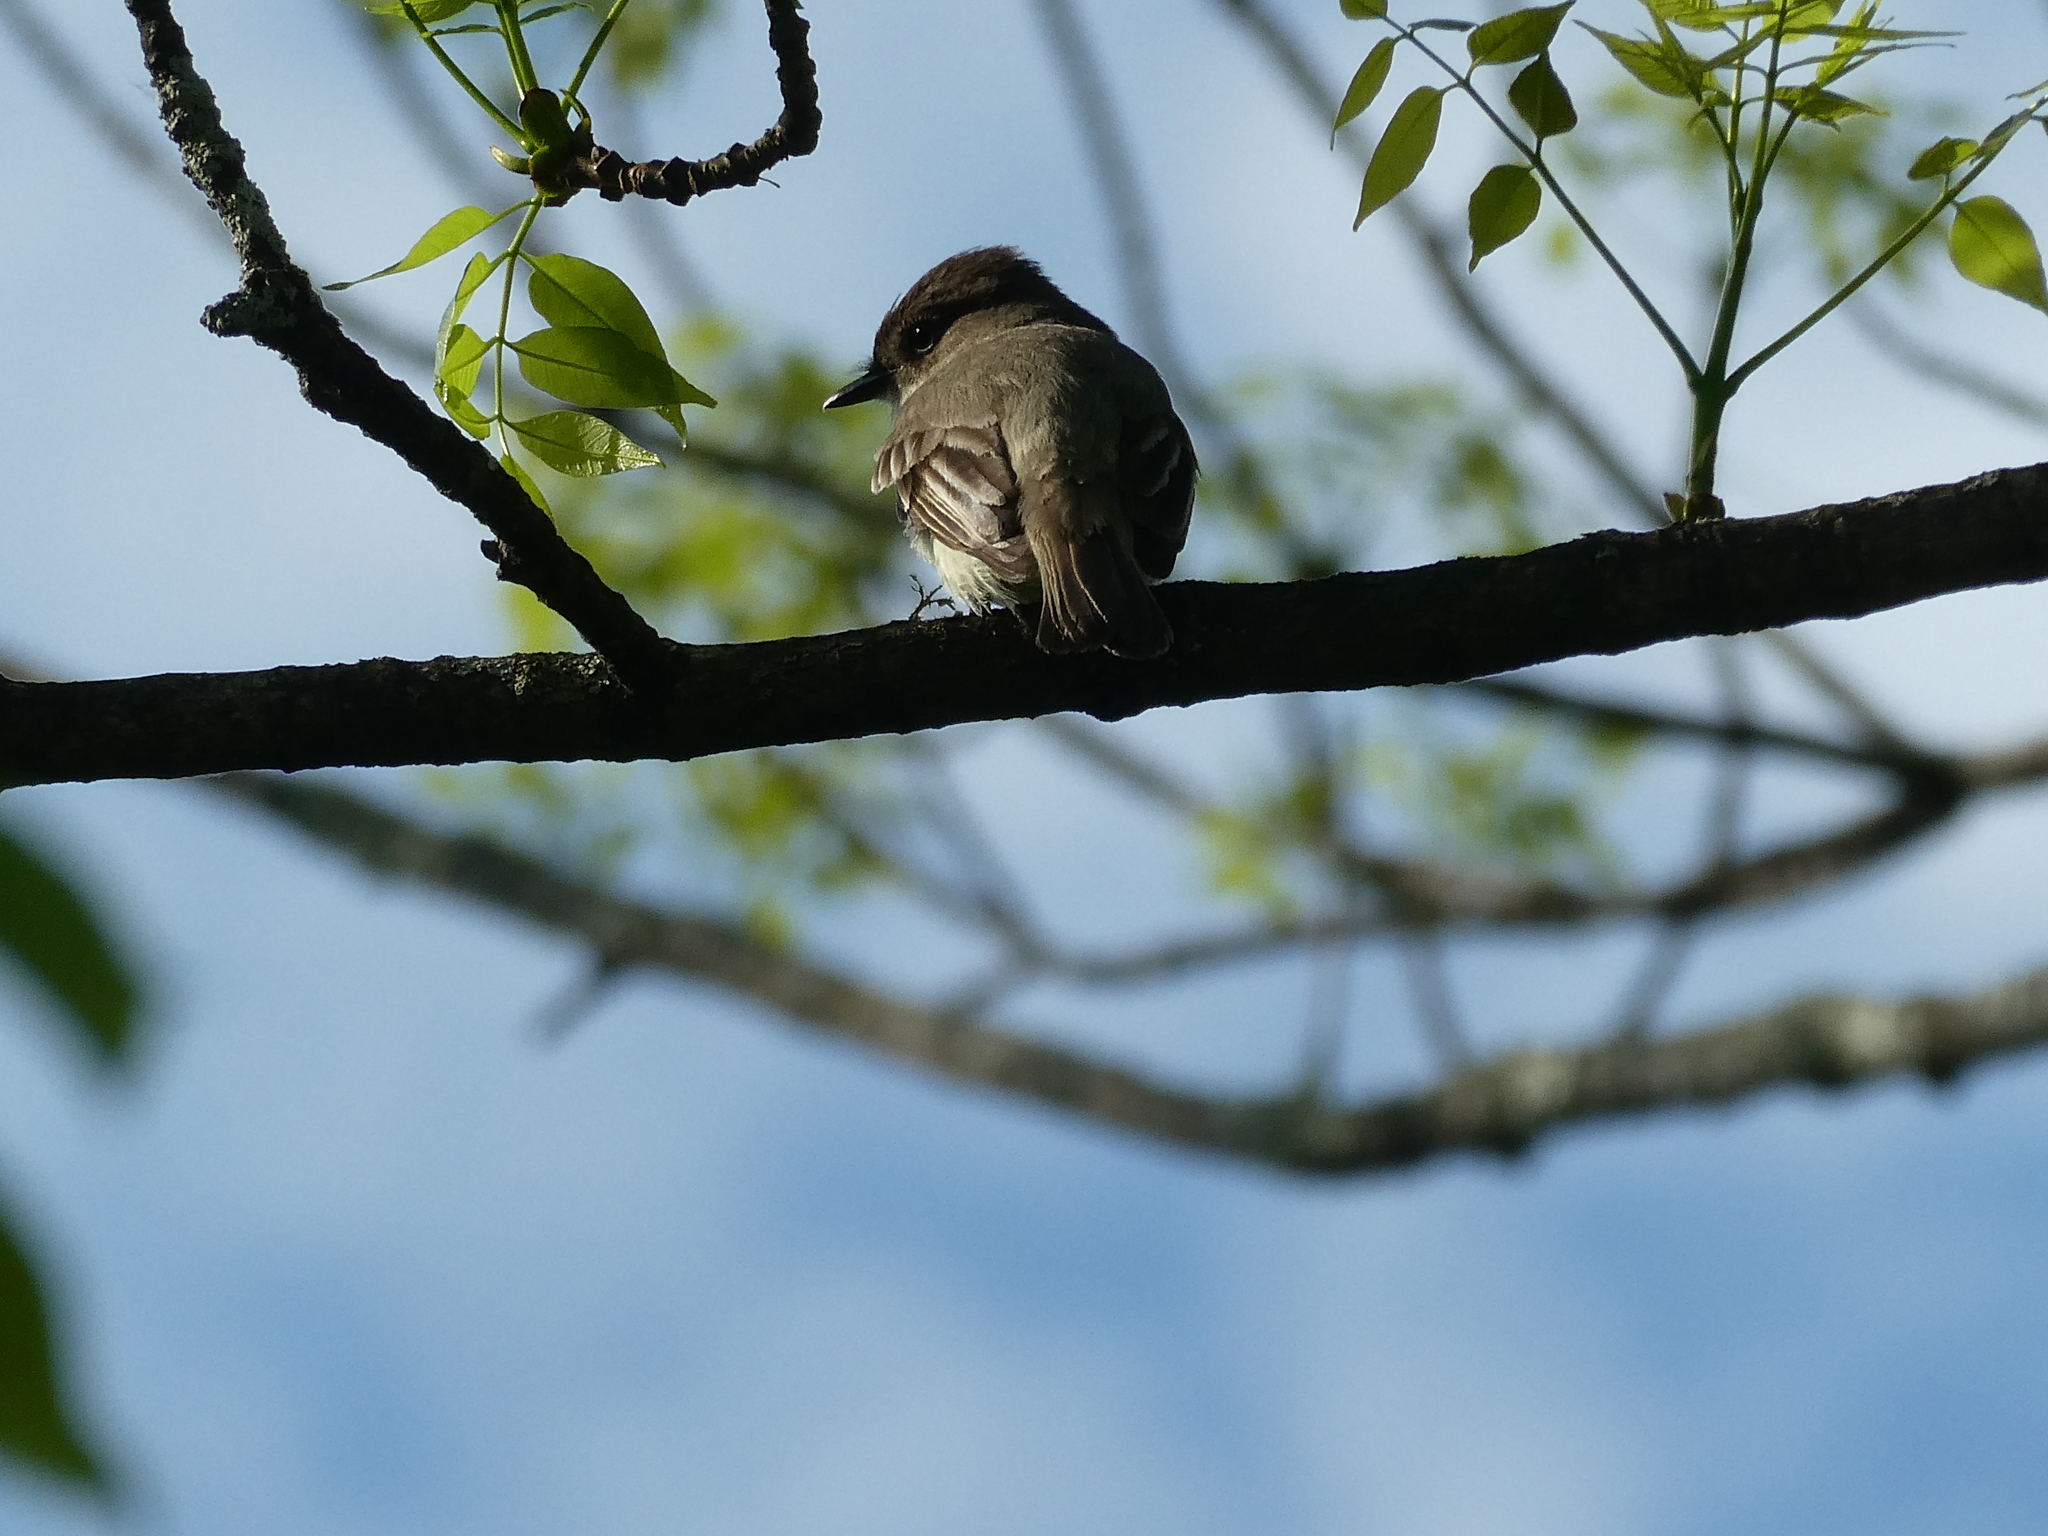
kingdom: Animalia
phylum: Chordata
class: Aves
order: Passeriformes
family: Tyrannidae
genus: Sayornis
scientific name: Sayornis phoebe
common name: Eastern phoebe
